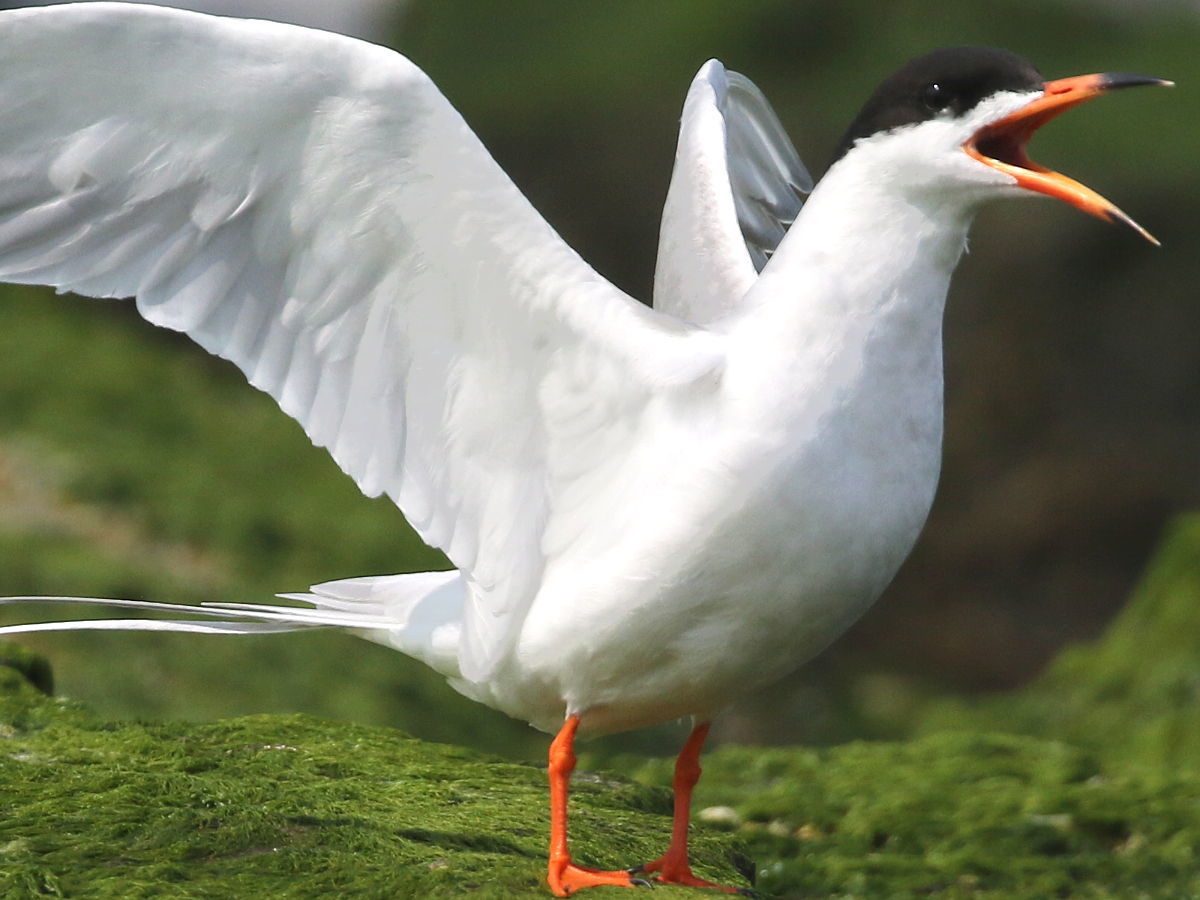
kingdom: Animalia
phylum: Chordata
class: Aves
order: Charadriiformes
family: Laridae
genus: Sterna
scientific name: Sterna forsteri
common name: Forster's tern
